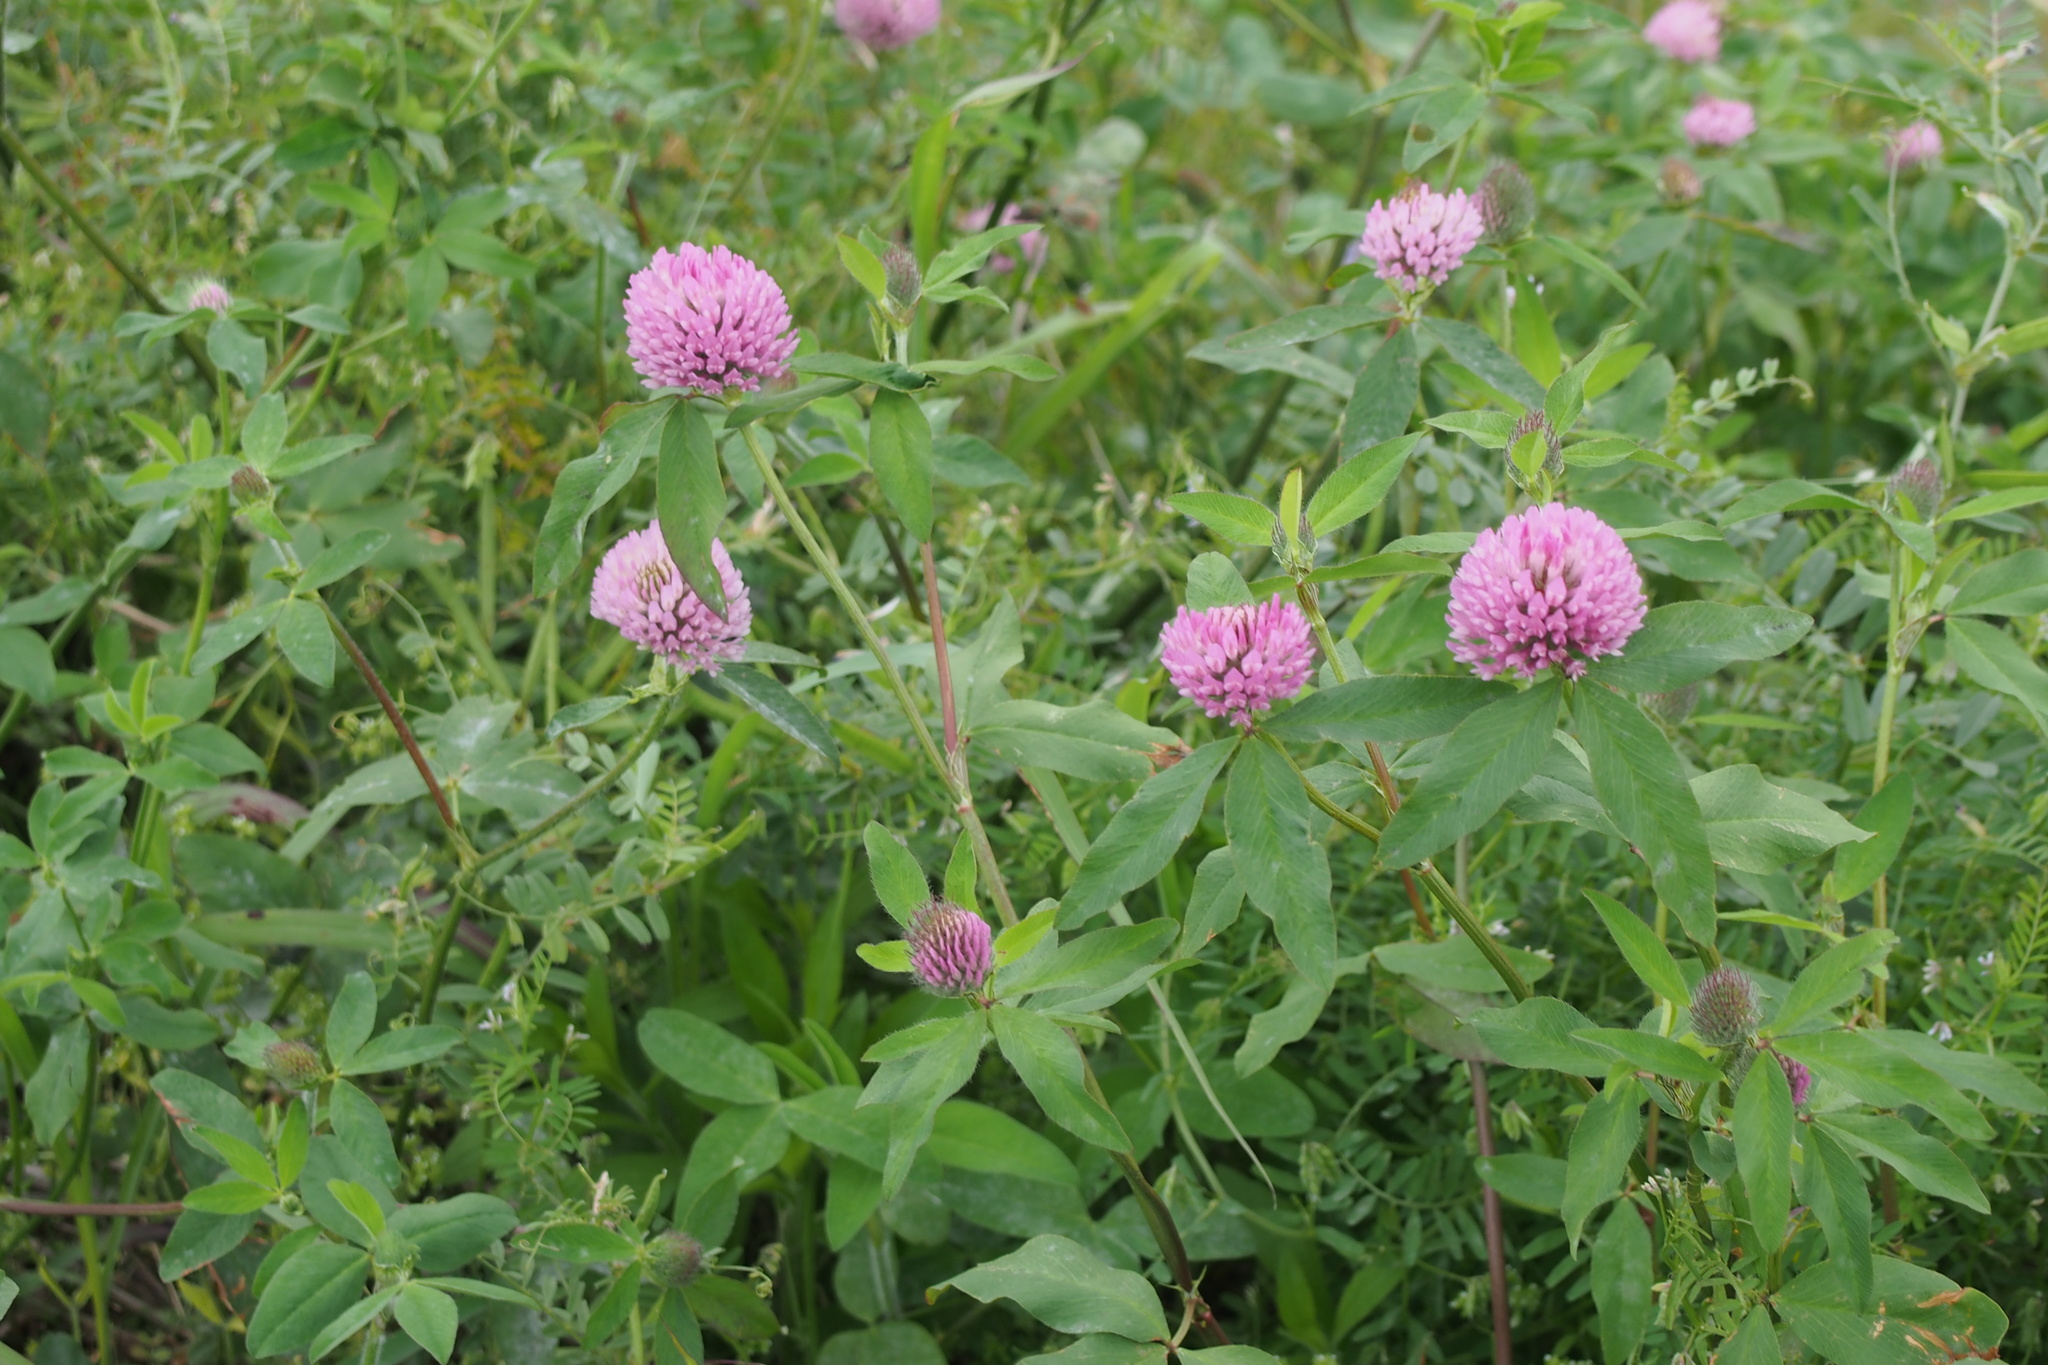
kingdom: Plantae
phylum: Tracheophyta
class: Magnoliopsida
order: Fabales
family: Fabaceae
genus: Trifolium
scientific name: Trifolium pratense
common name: Red clover
